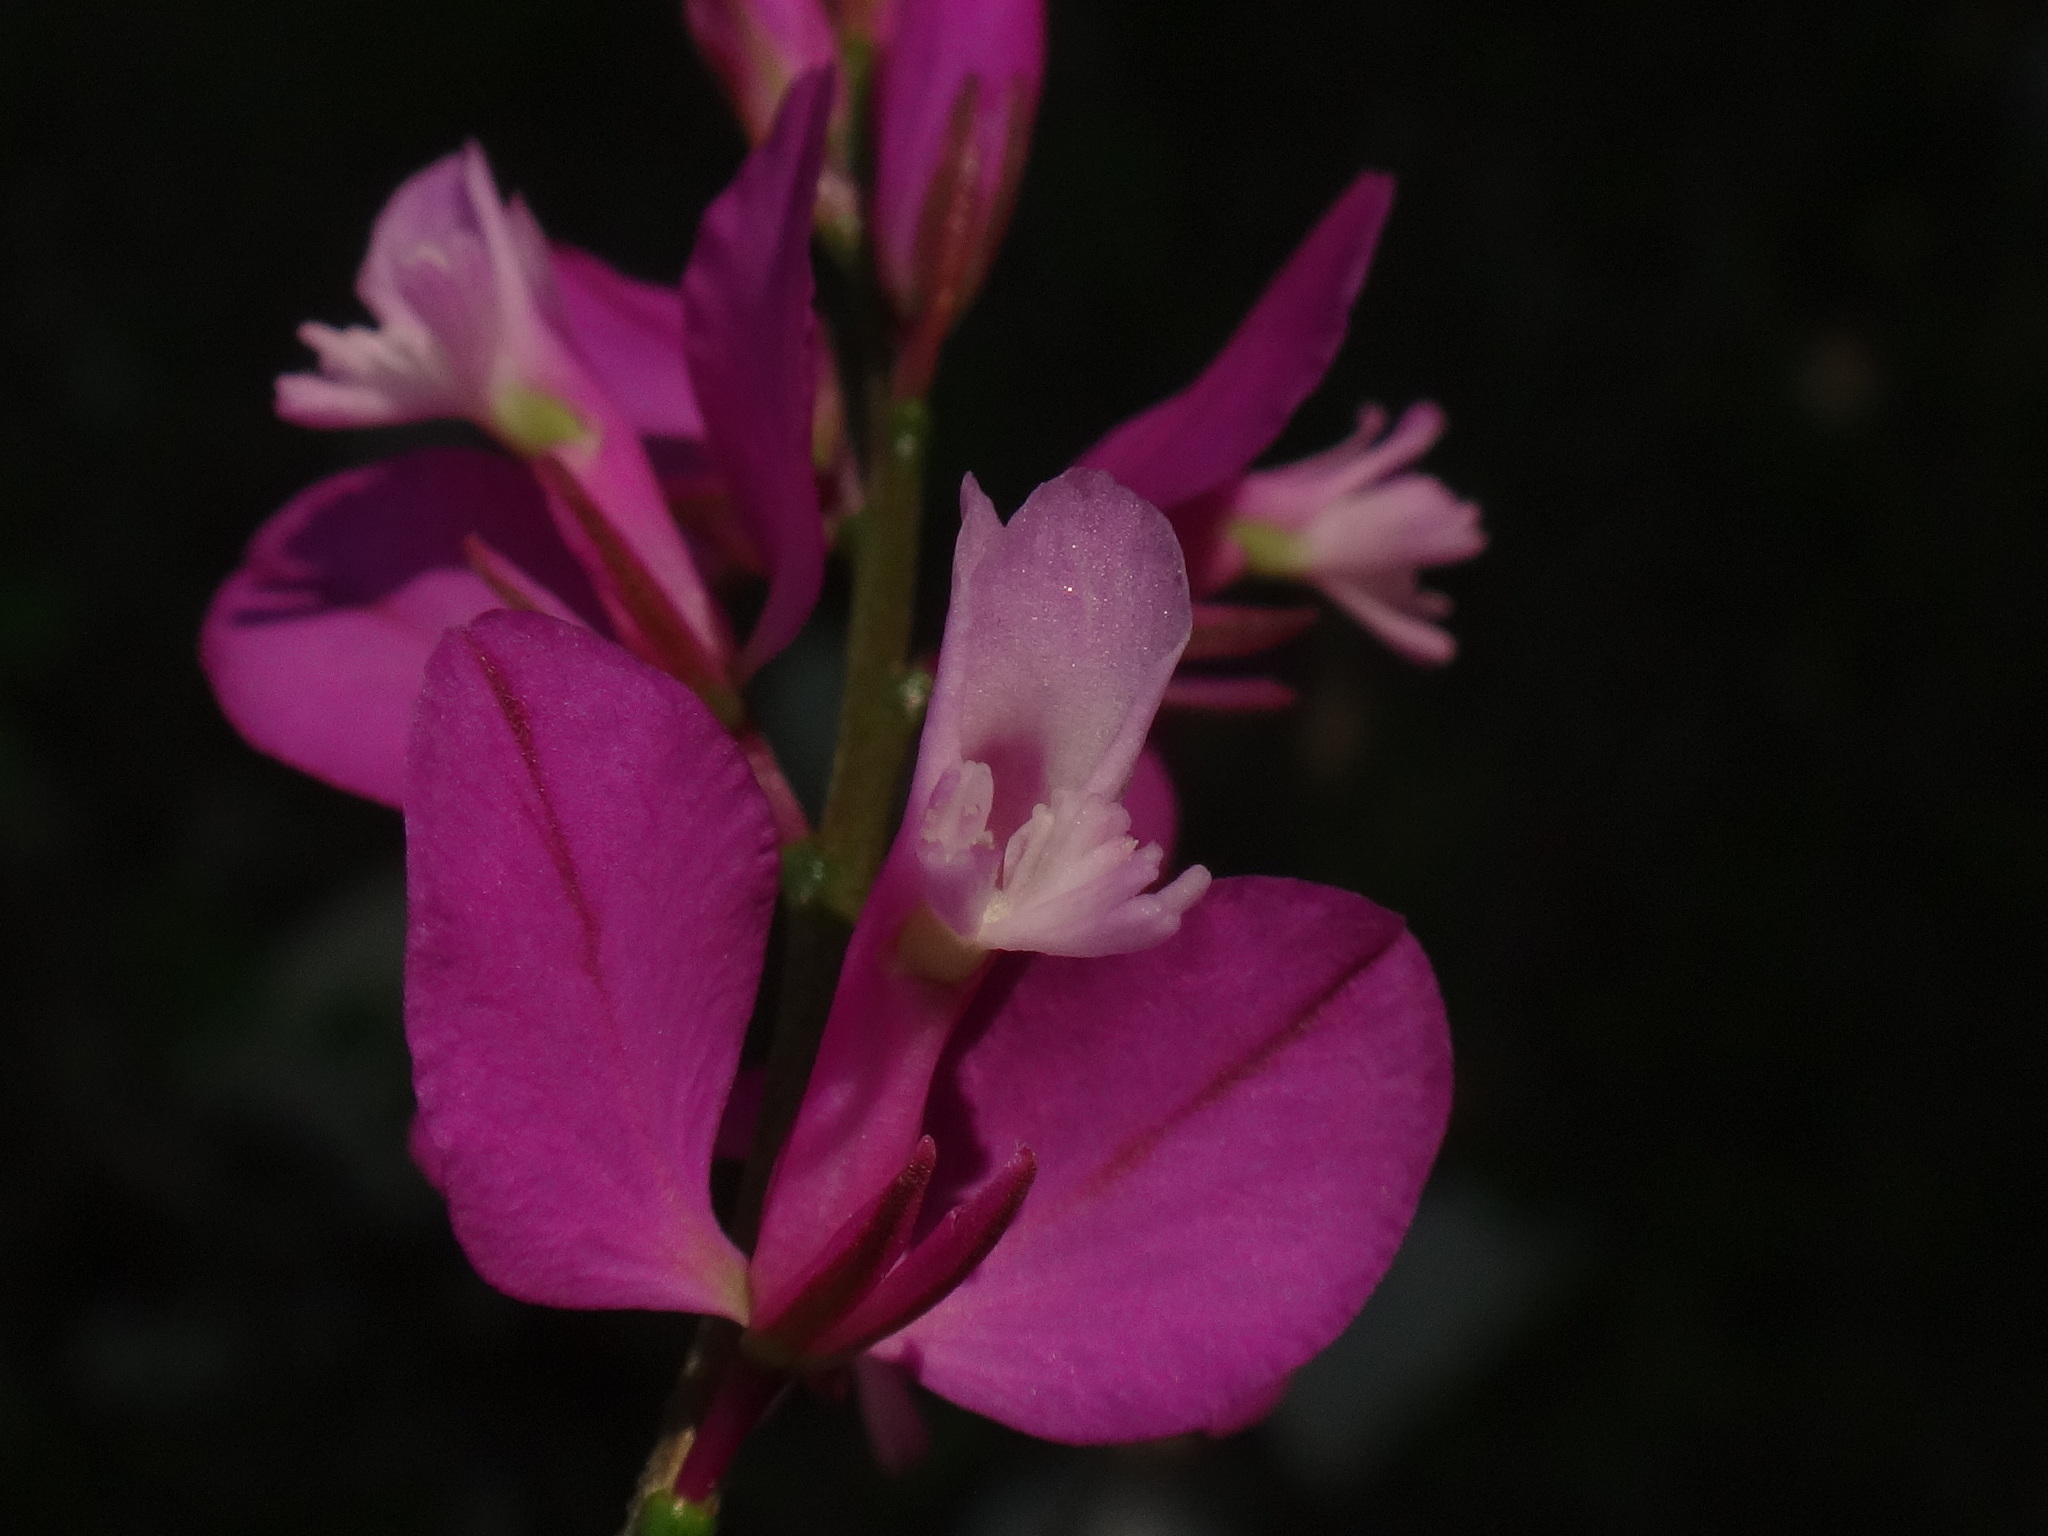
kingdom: Plantae
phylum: Tracheophyta
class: Magnoliopsida
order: Fabales
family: Polygalaceae
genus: Polygala
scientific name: Polygala nicaeensis
